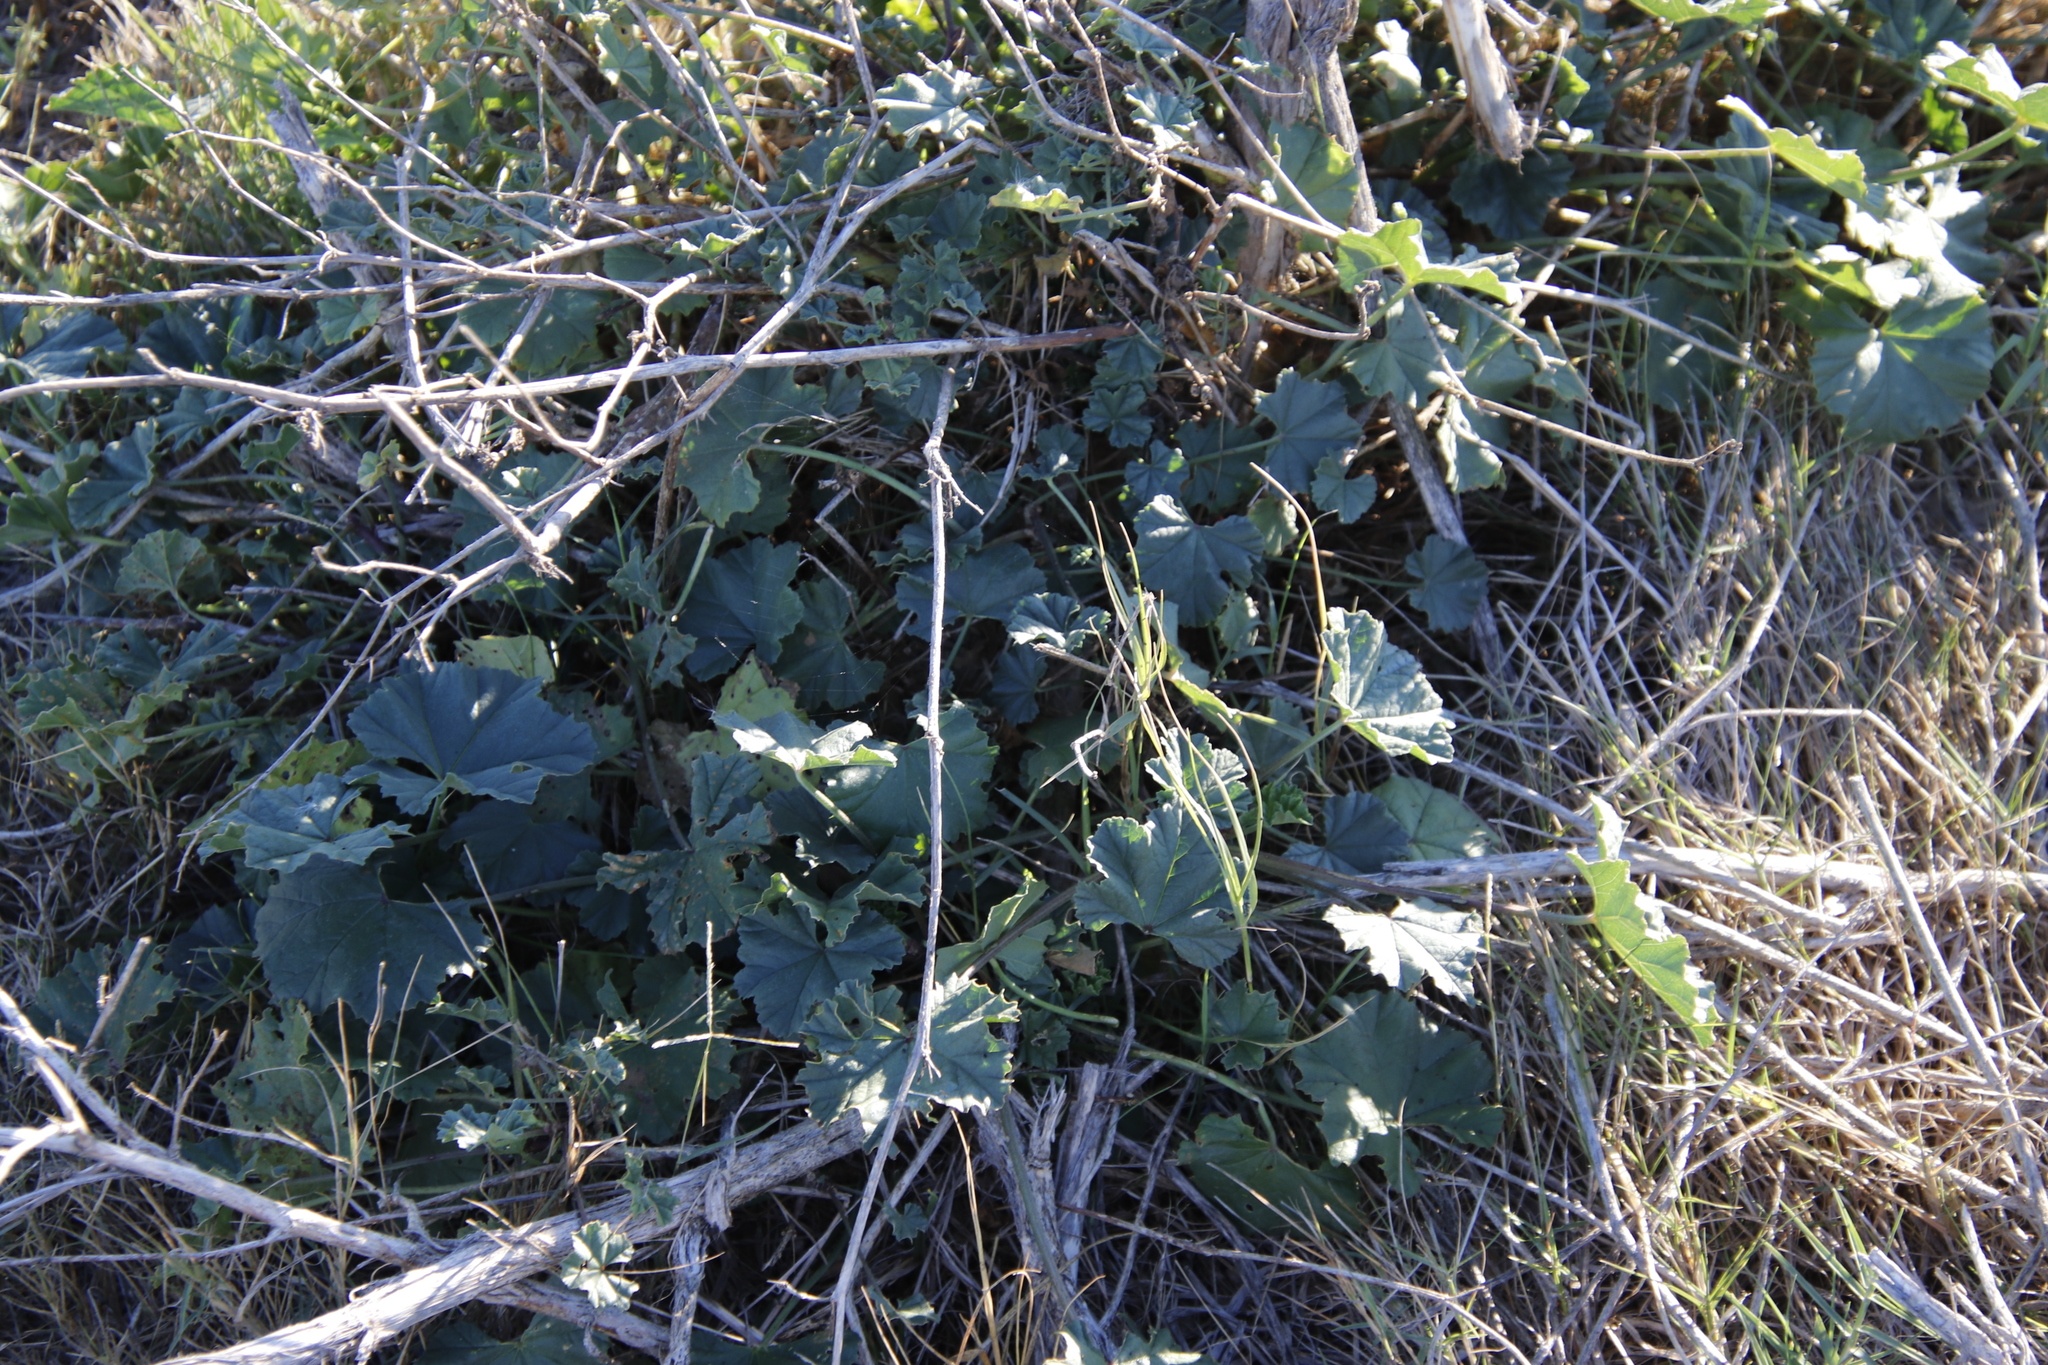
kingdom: Plantae
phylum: Tracheophyta
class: Magnoliopsida
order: Malvales
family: Malvaceae
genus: Malva
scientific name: Malva parviflora
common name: Least mallow
